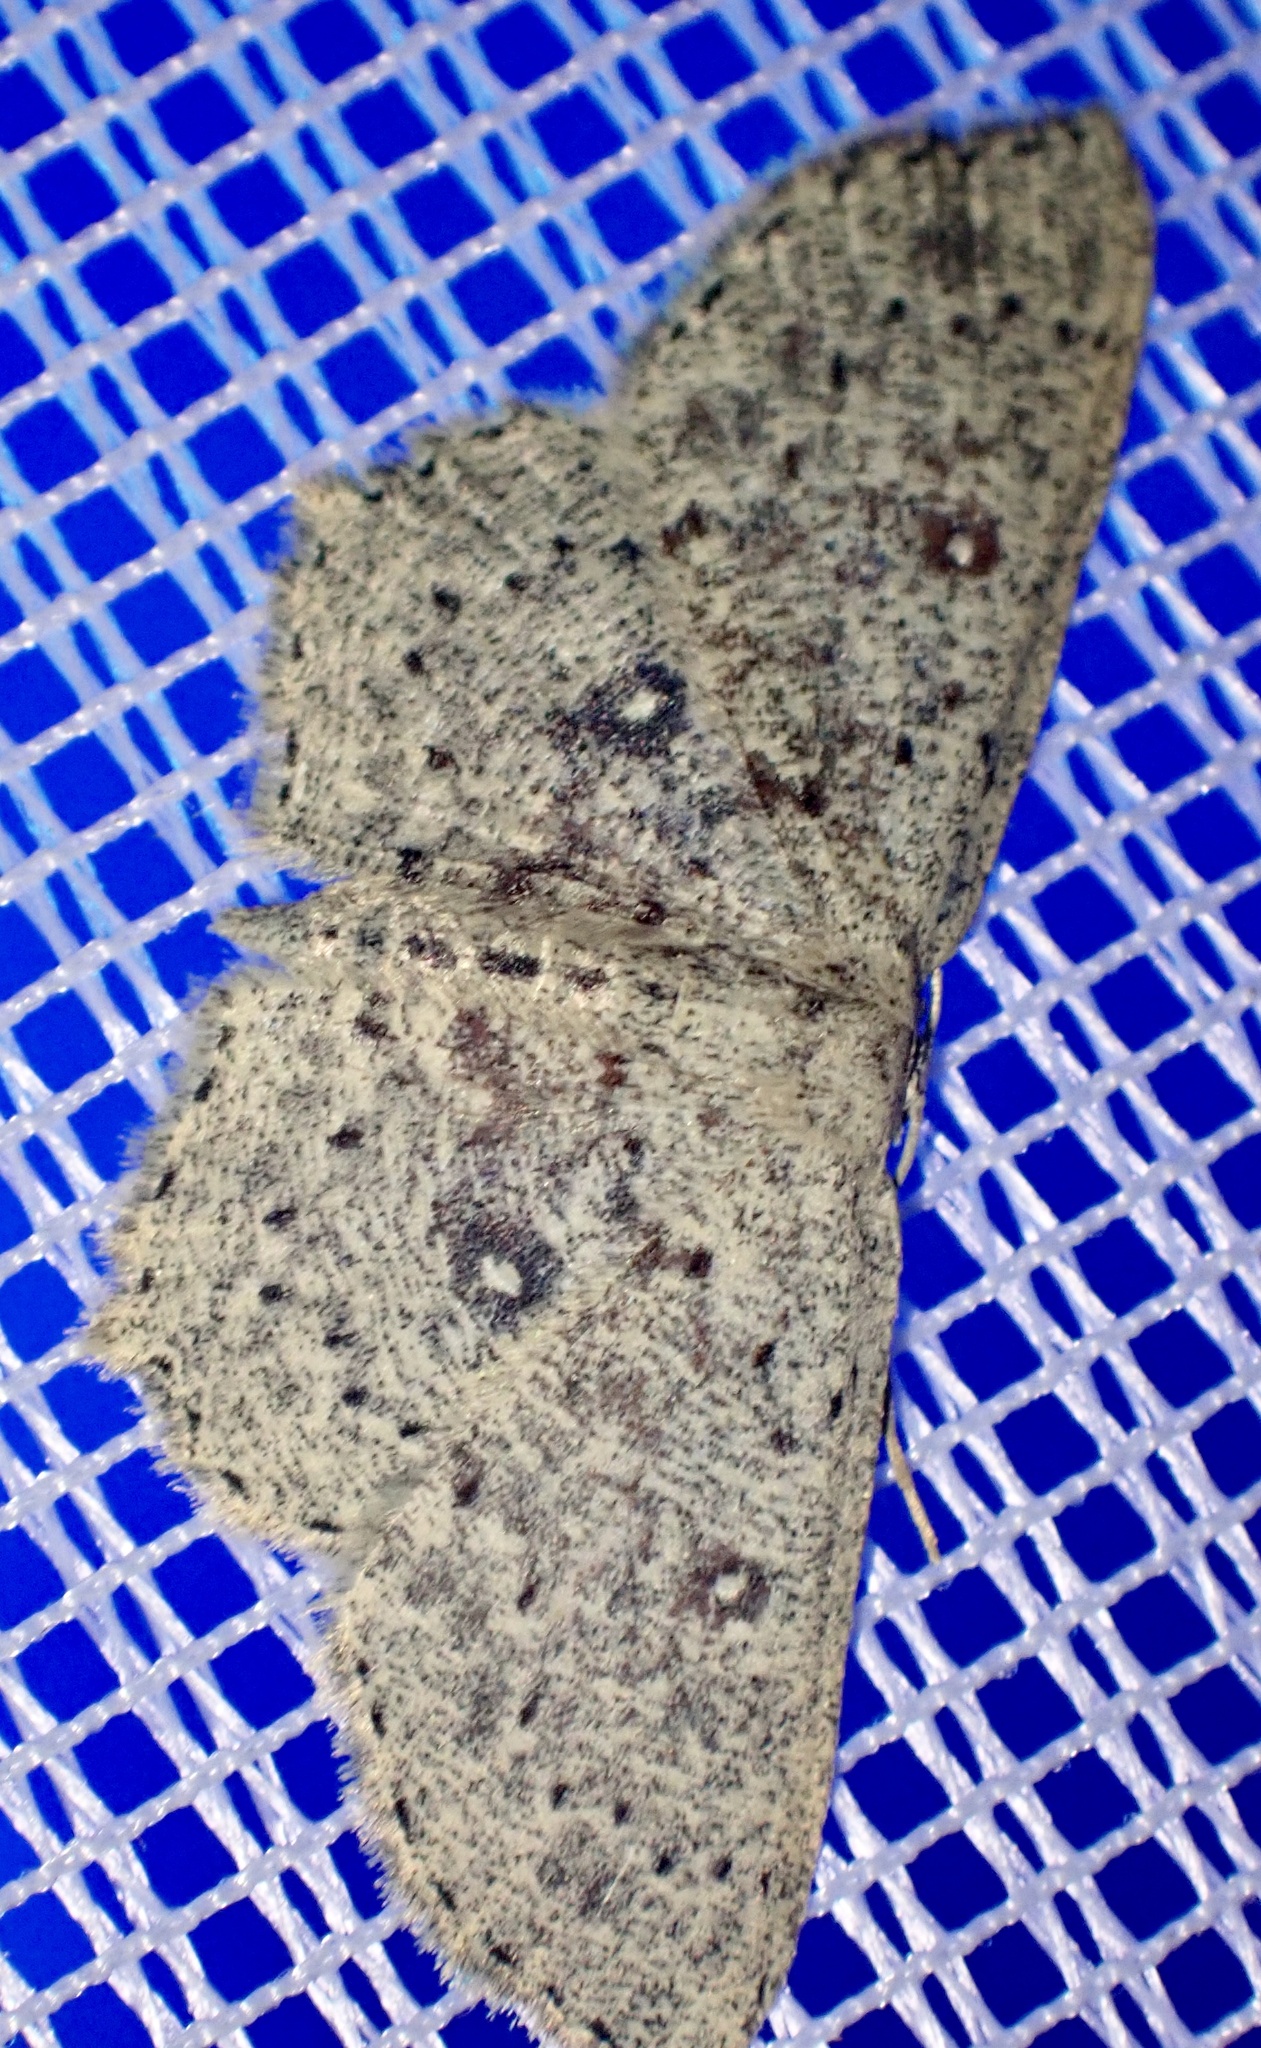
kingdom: Animalia
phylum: Arthropoda
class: Insecta
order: Lepidoptera
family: Geometridae
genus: Cyclophora
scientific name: Cyclophora pendularia
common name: Dingy mocha
